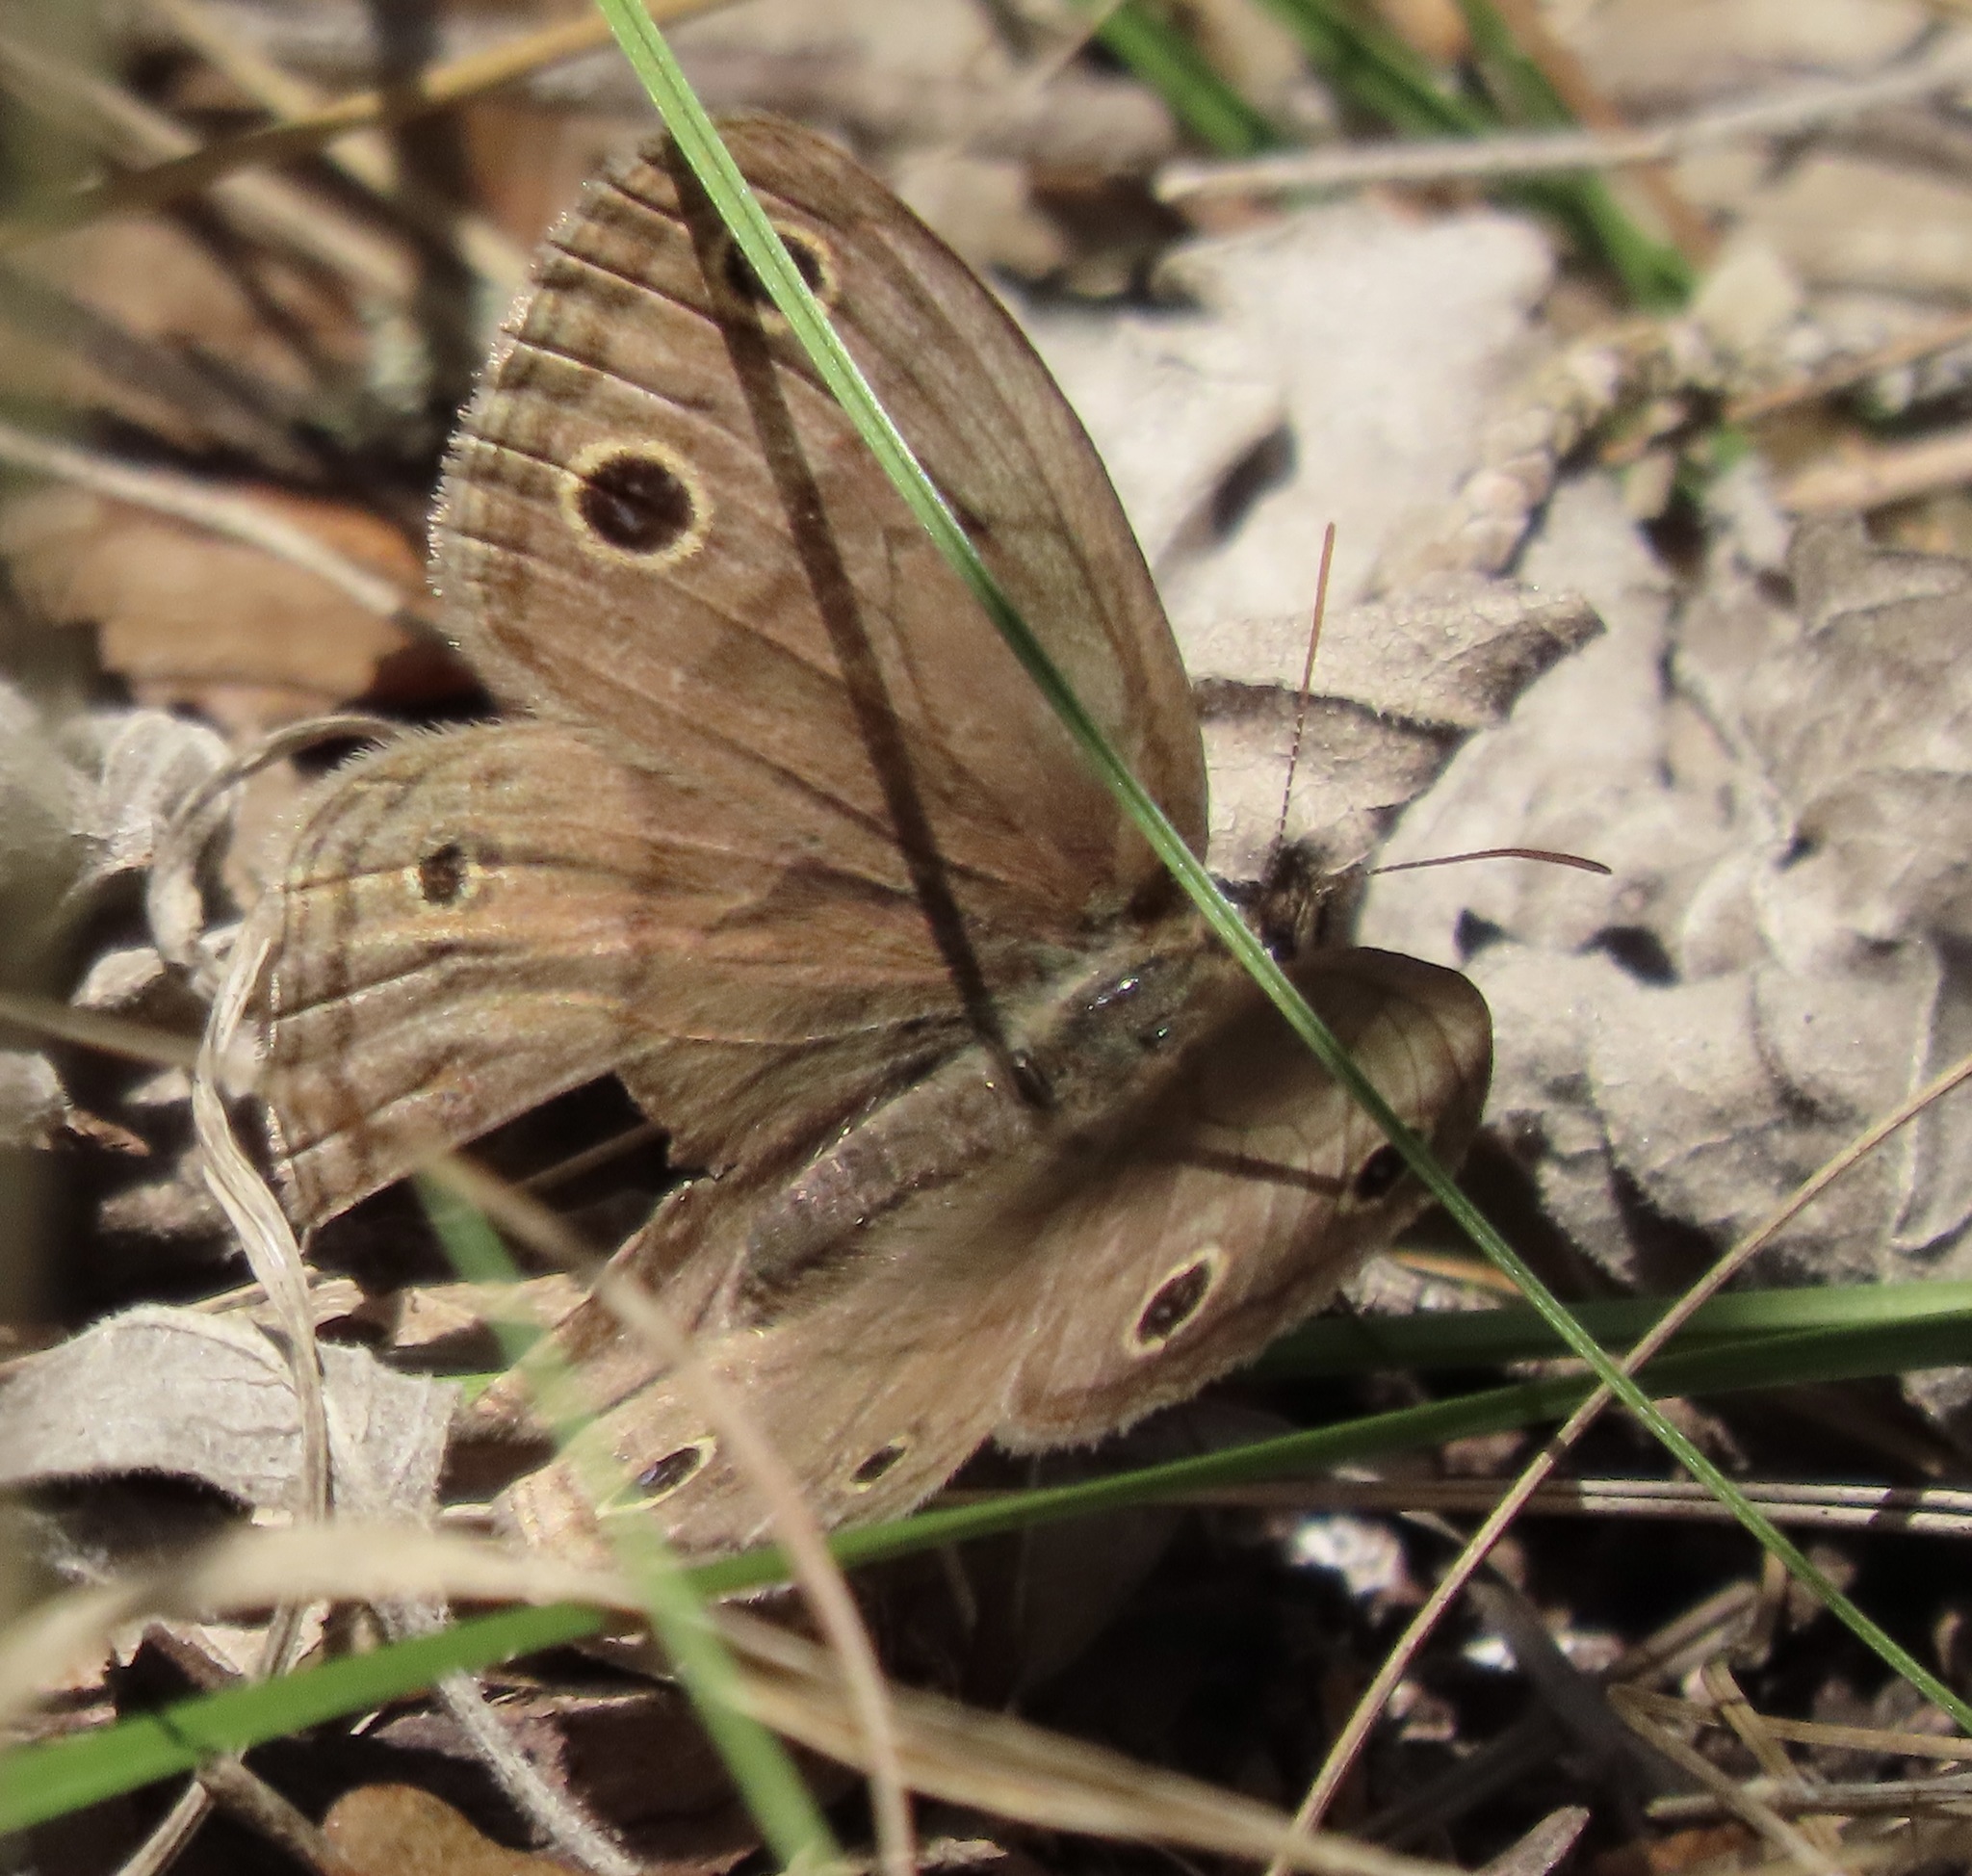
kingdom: Animalia
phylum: Arthropoda
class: Insecta
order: Lepidoptera
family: Nymphalidae
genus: Euptychia
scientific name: Euptychia cymela
